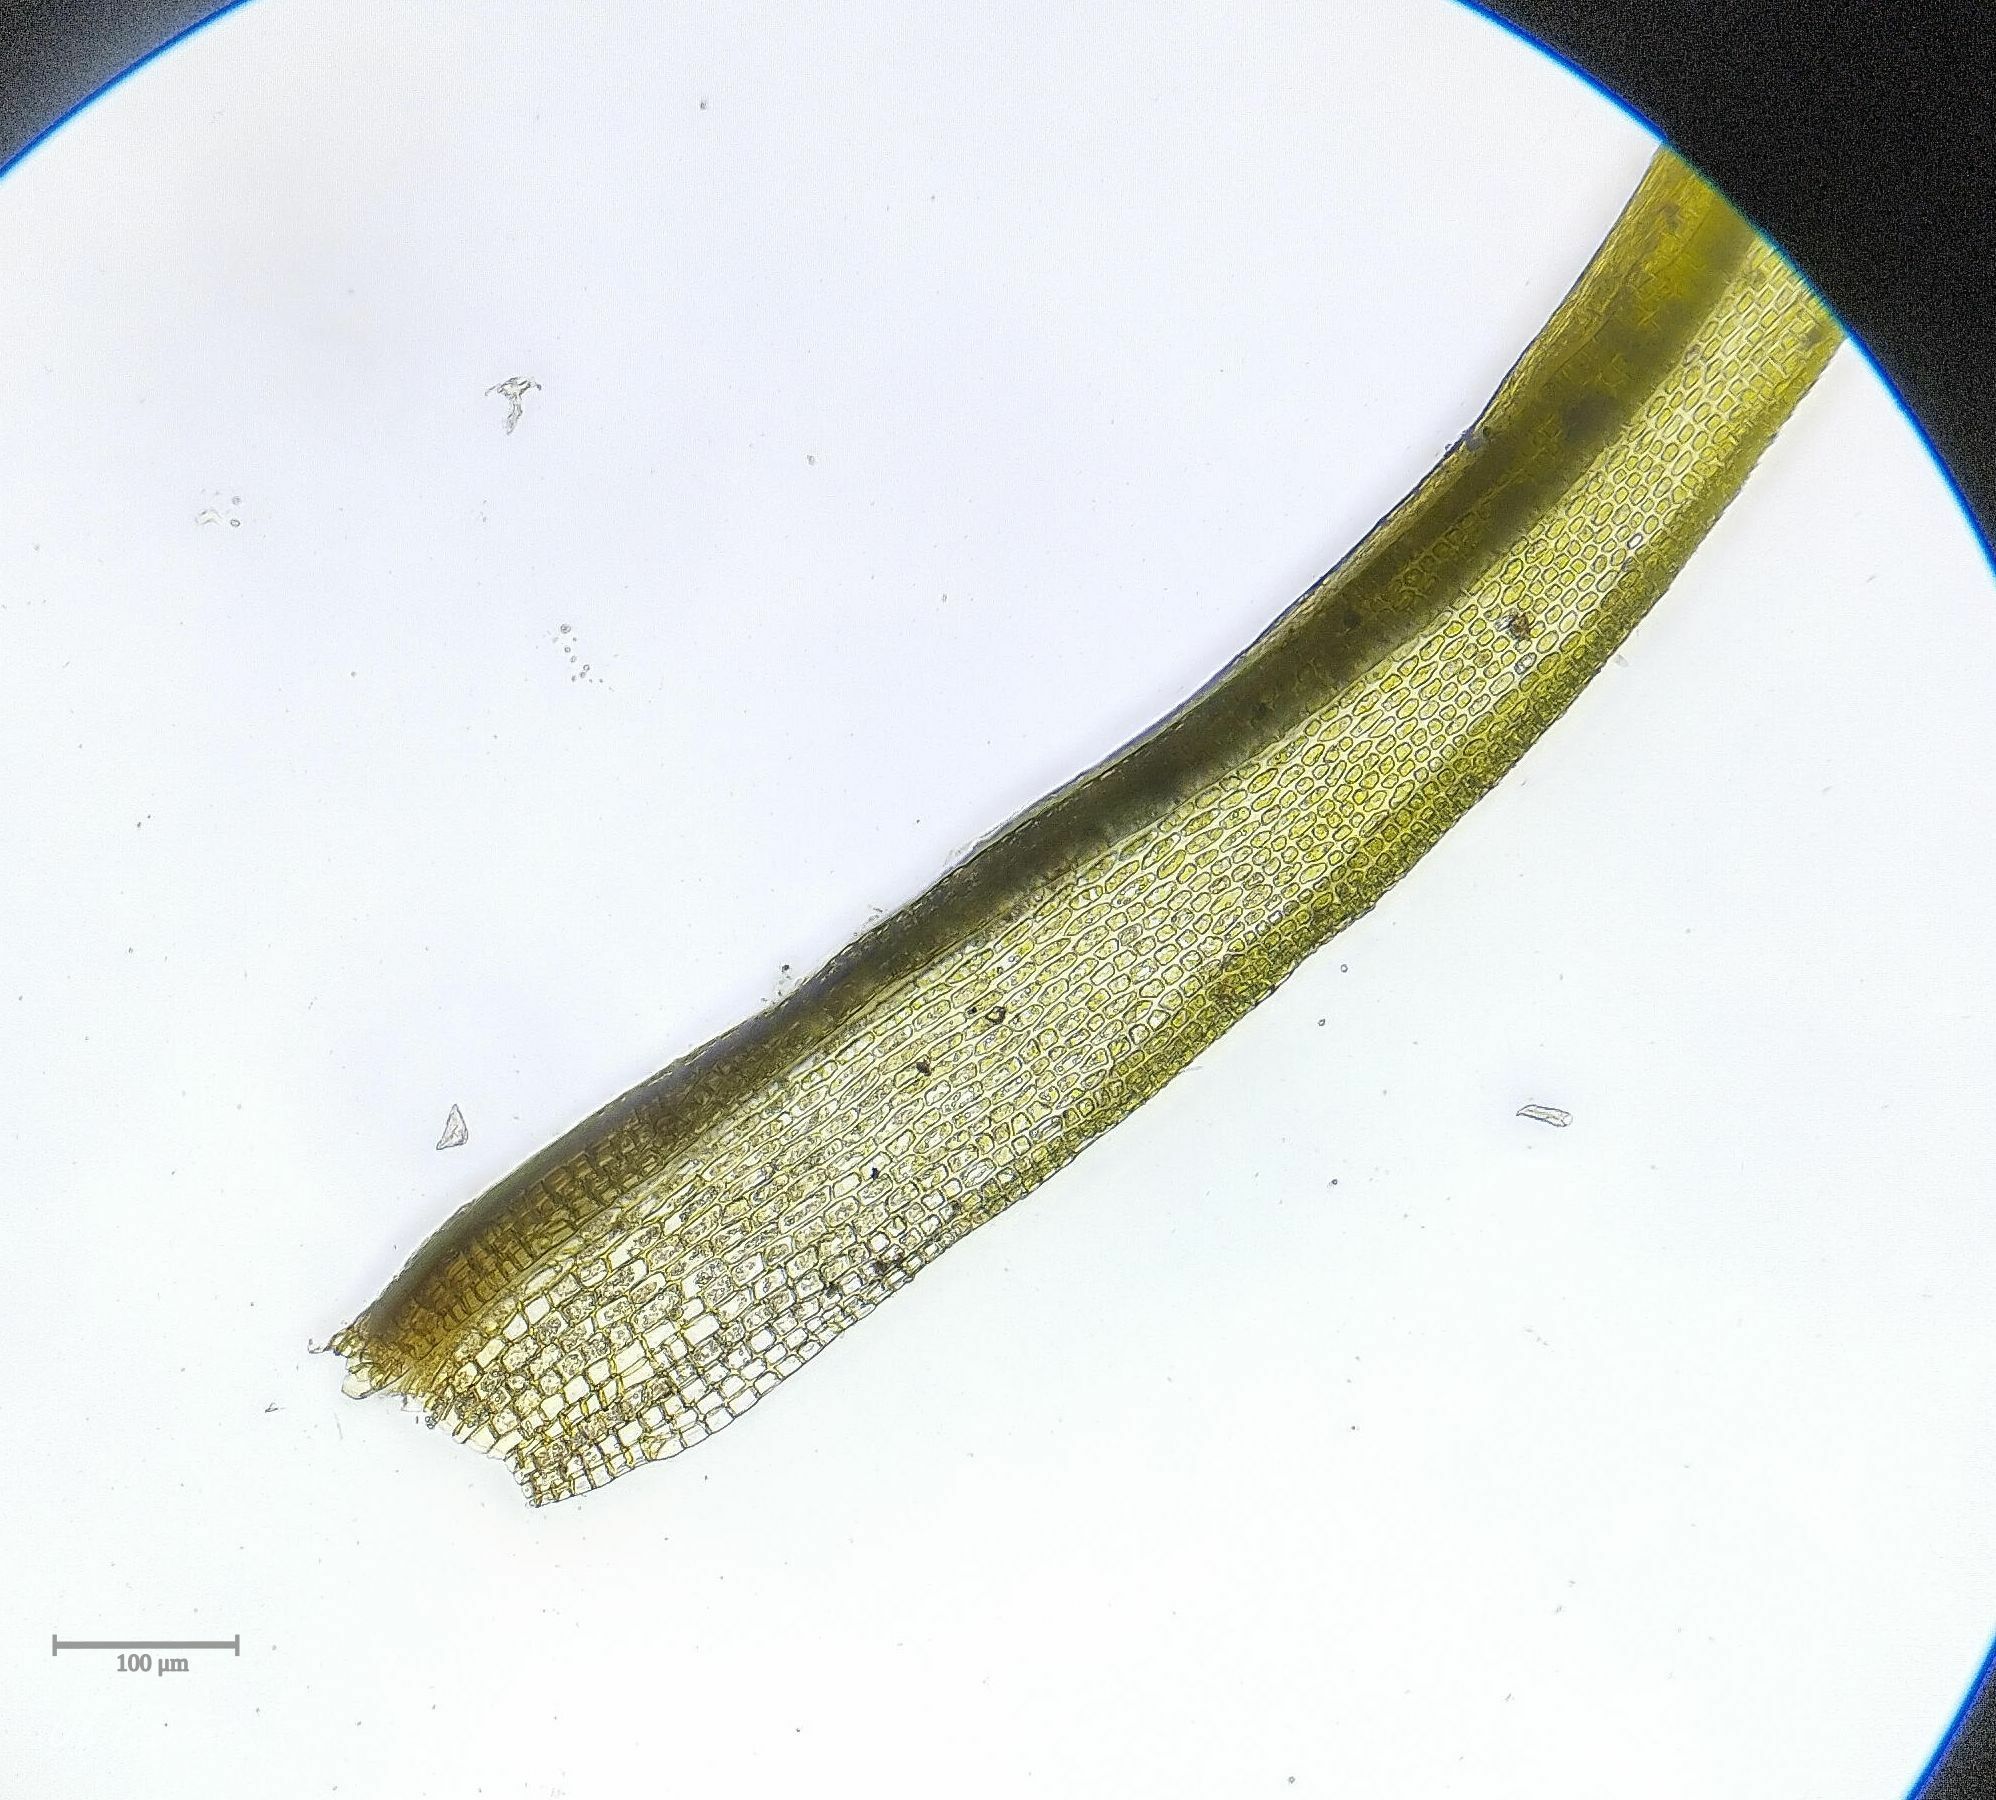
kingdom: Plantae
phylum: Bryophyta
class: Bryopsida
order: Dicranales
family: Rhabdoweisiaceae
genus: Dicranoweisia
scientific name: Dicranoweisia cirrata
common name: Common pincushion
